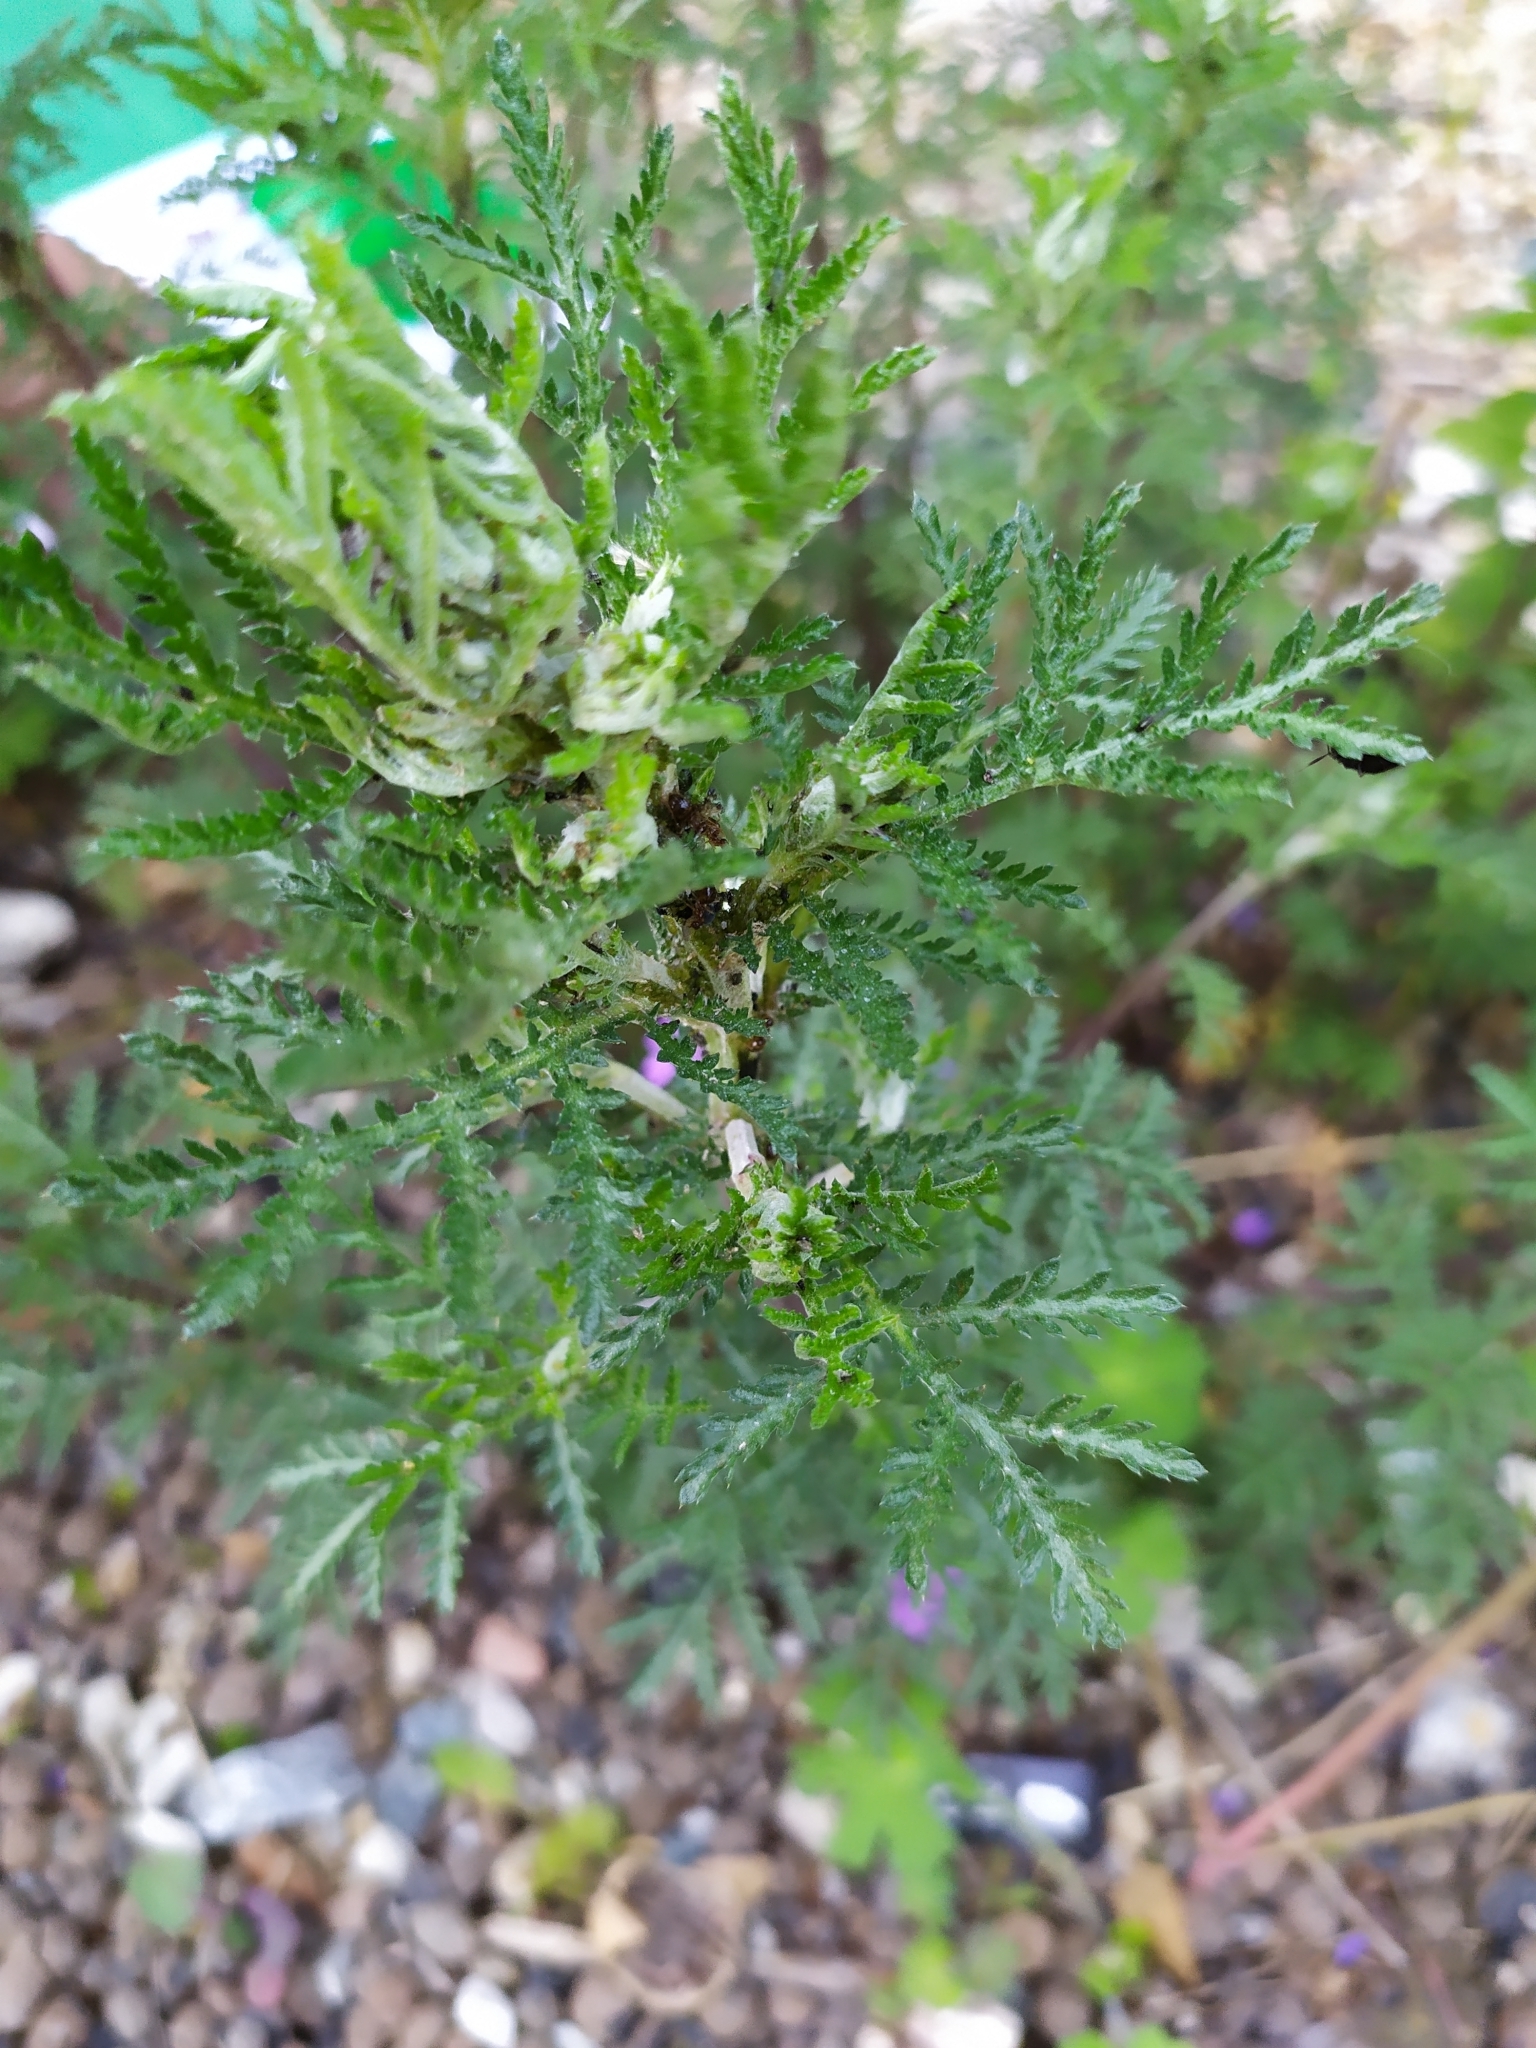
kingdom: Plantae
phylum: Tracheophyta
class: Magnoliopsida
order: Asterales
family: Asteraceae
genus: Cota
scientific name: Cota tinctoria
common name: Golden chamomile
